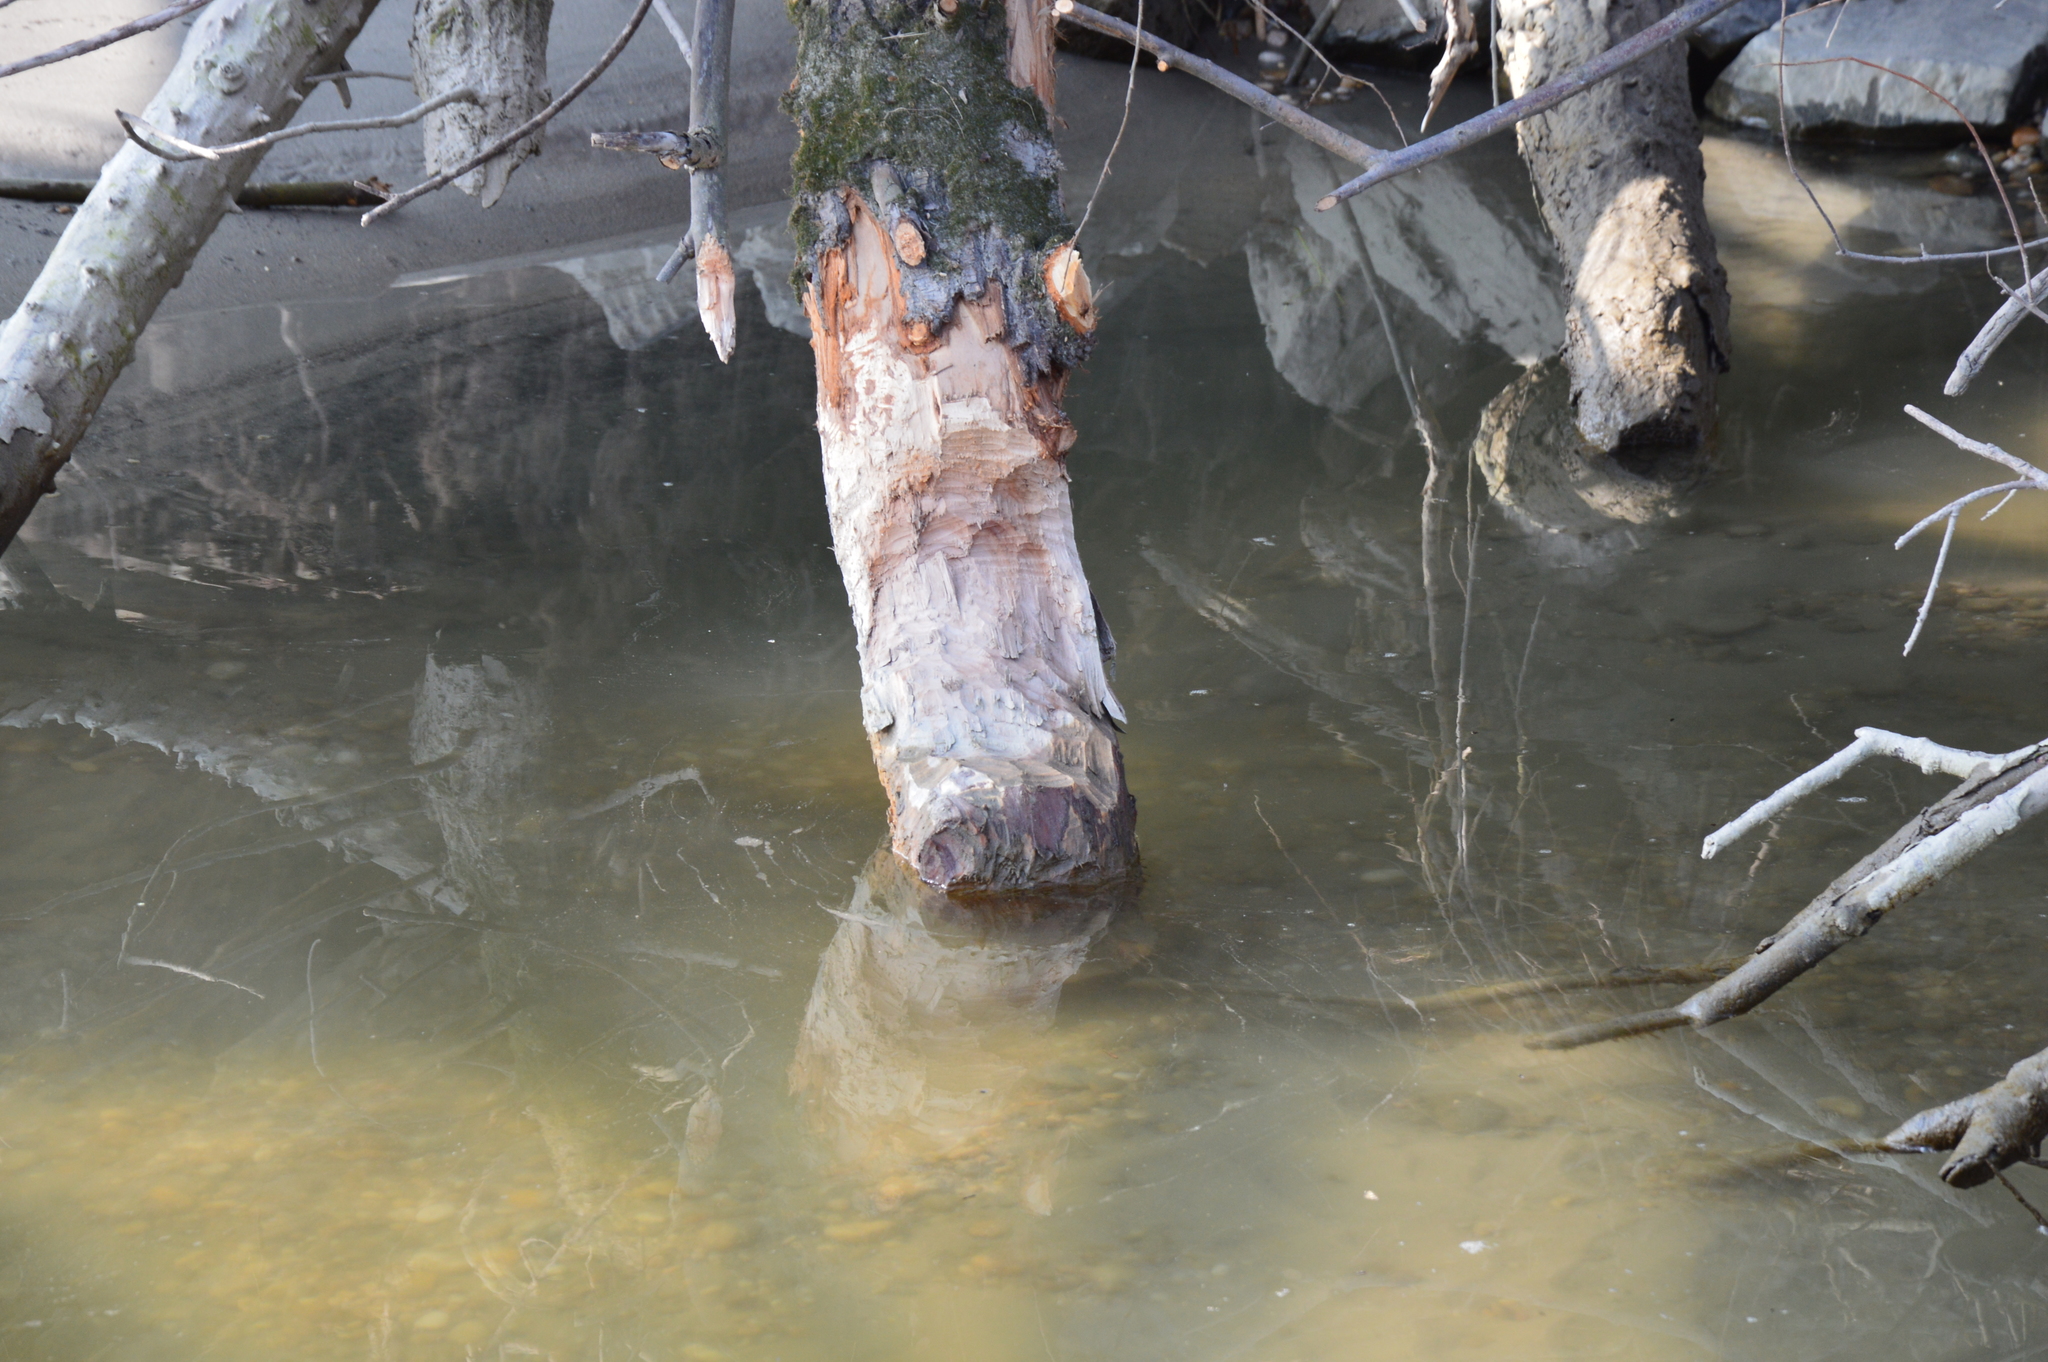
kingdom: Animalia
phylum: Chordata
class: Mammalia
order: Rodentia
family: Castoridae
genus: Castor
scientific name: Castor fiber
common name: Eurasian beaver
